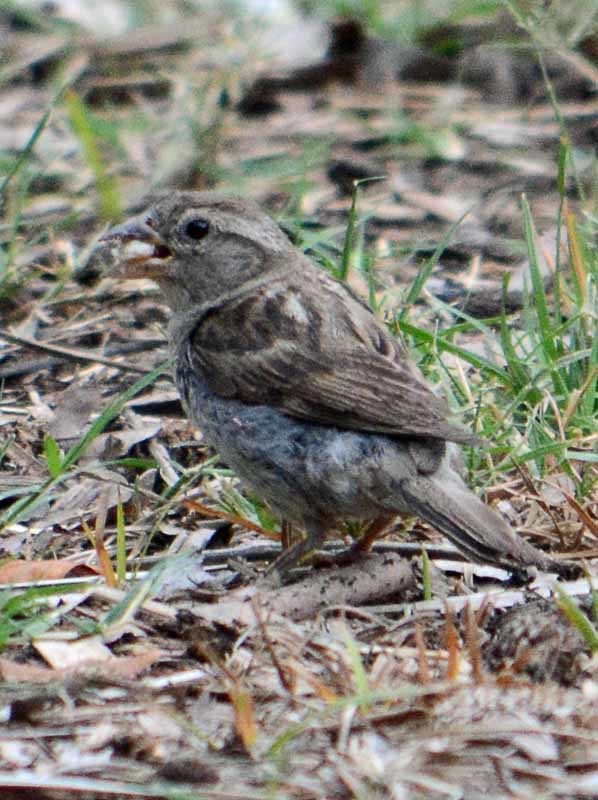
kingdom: Animalia
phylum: Chordata
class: Aves
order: Passeriformes
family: Passeridae
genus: Passer
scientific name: Passer domesticus
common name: House sparrow
